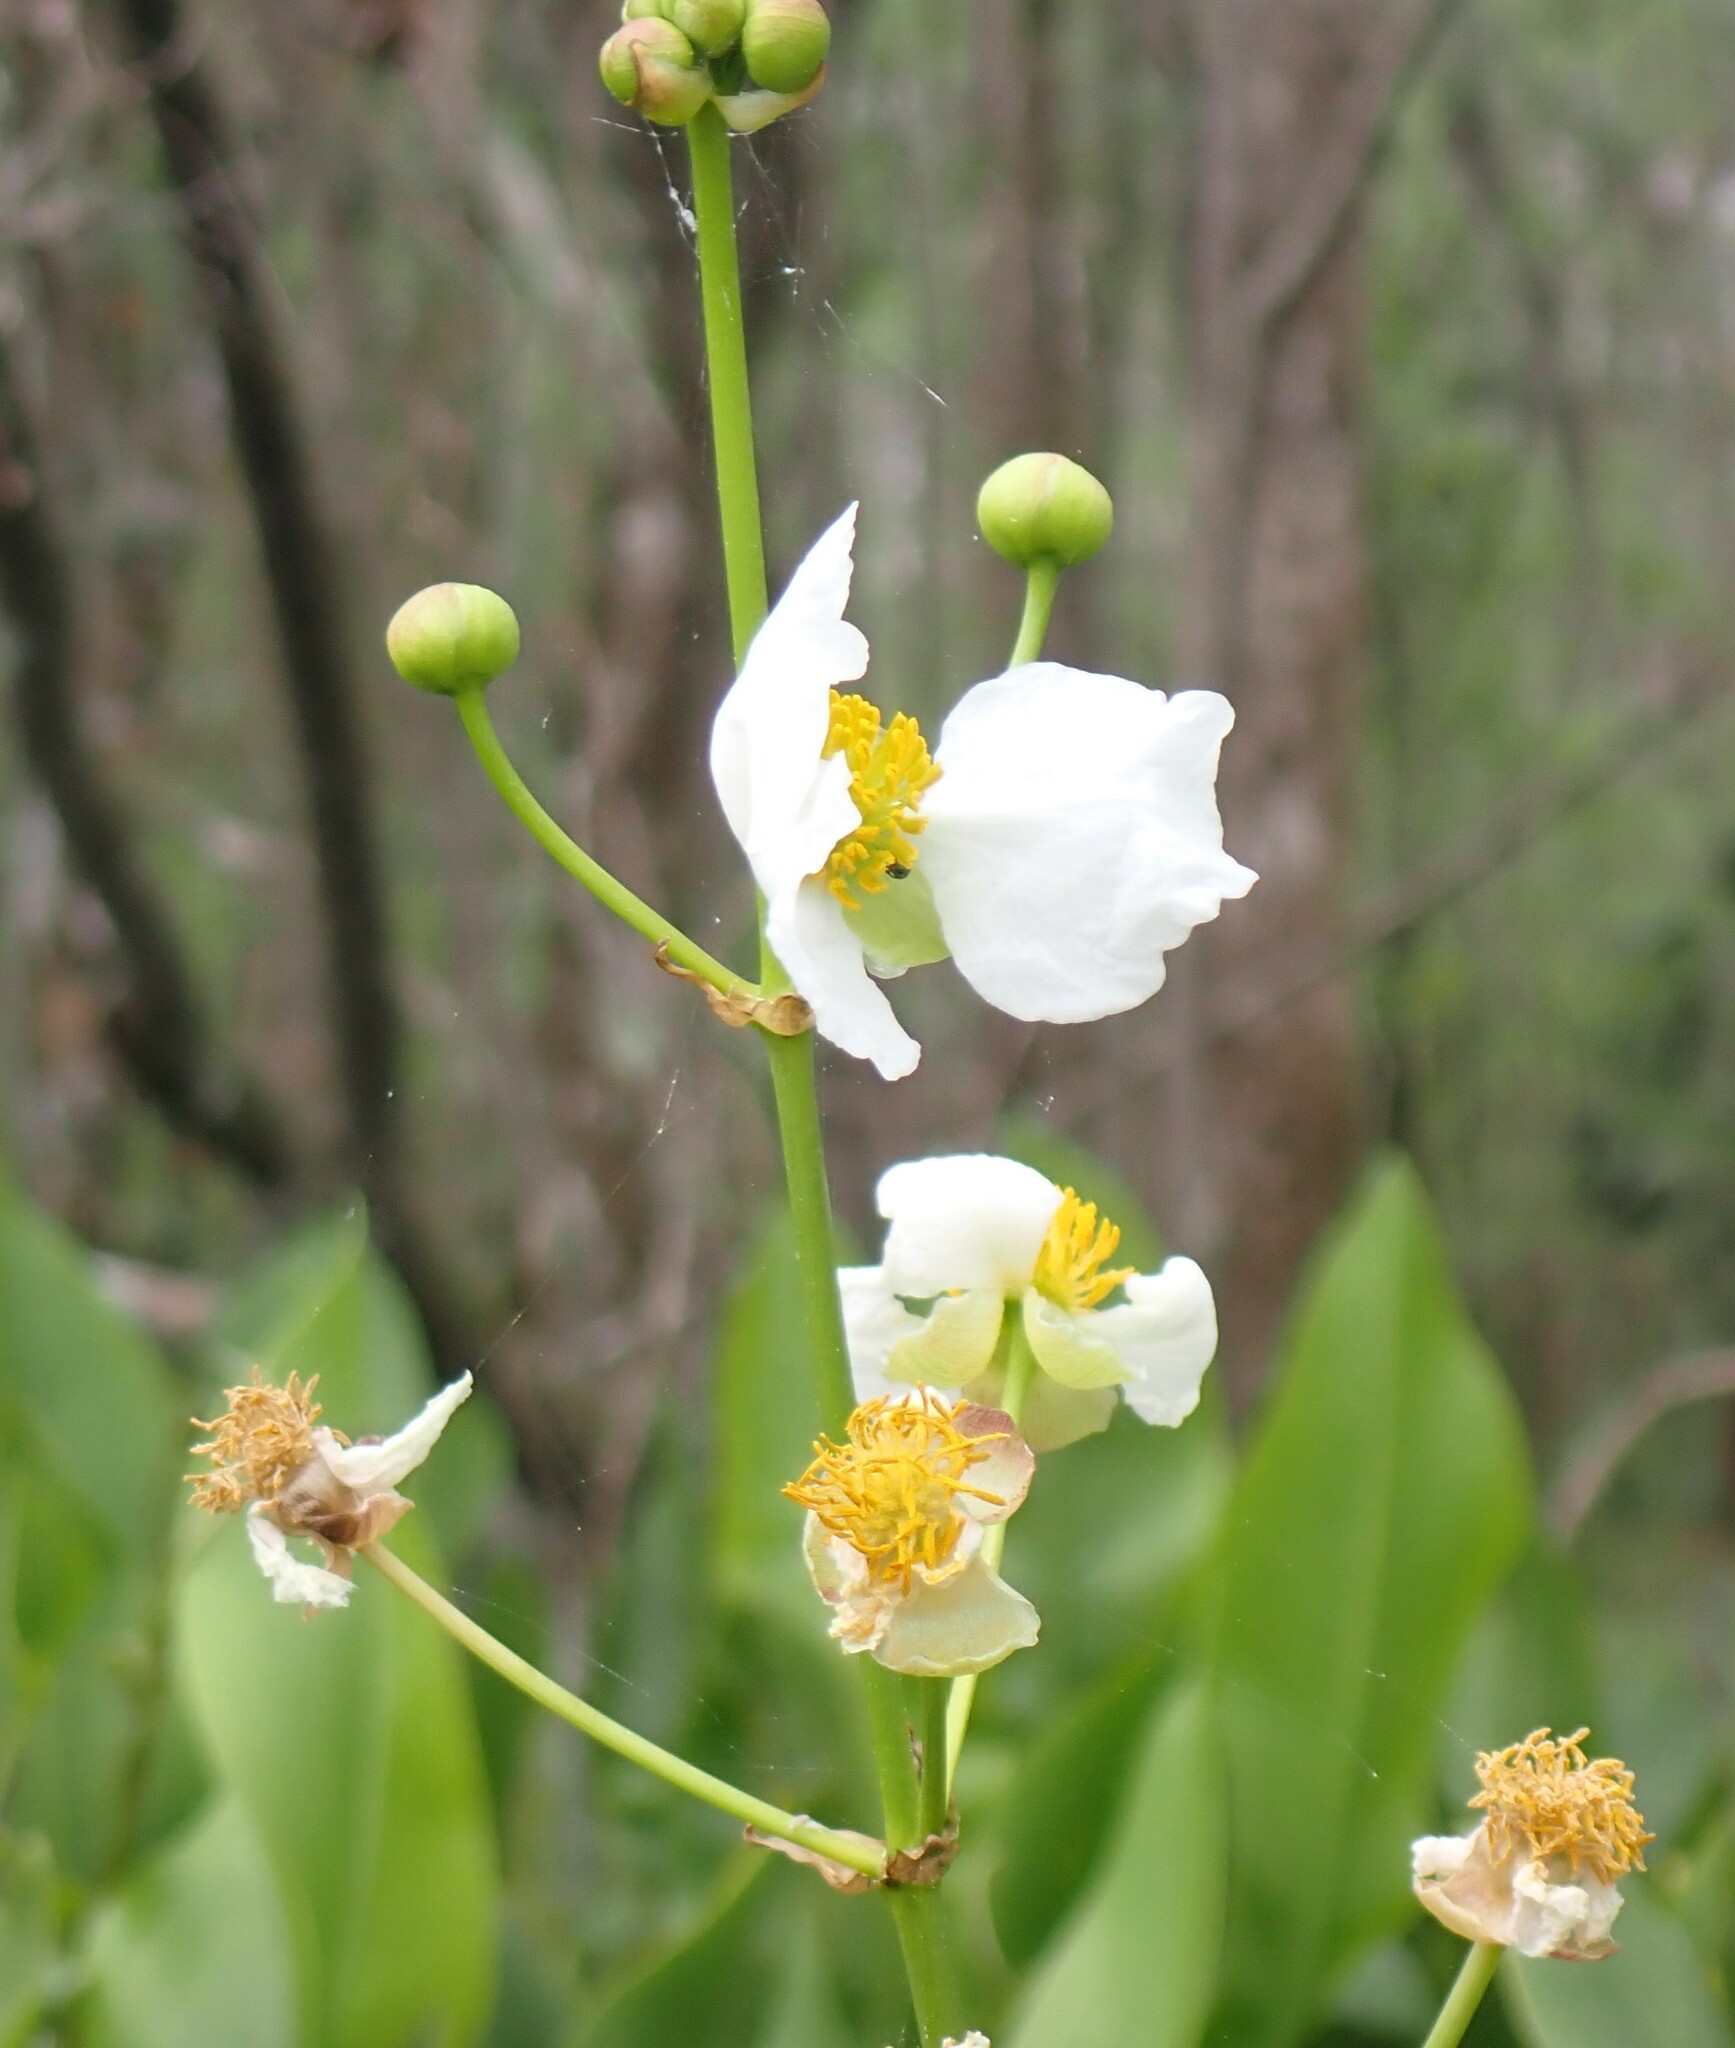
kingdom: Plantae
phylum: Tracheophyta
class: Liliopsida
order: Alismatales
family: Alismataceae
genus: Sagittaria
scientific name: Sagittaria lancifolia
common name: Lance-leaf arrowhead
